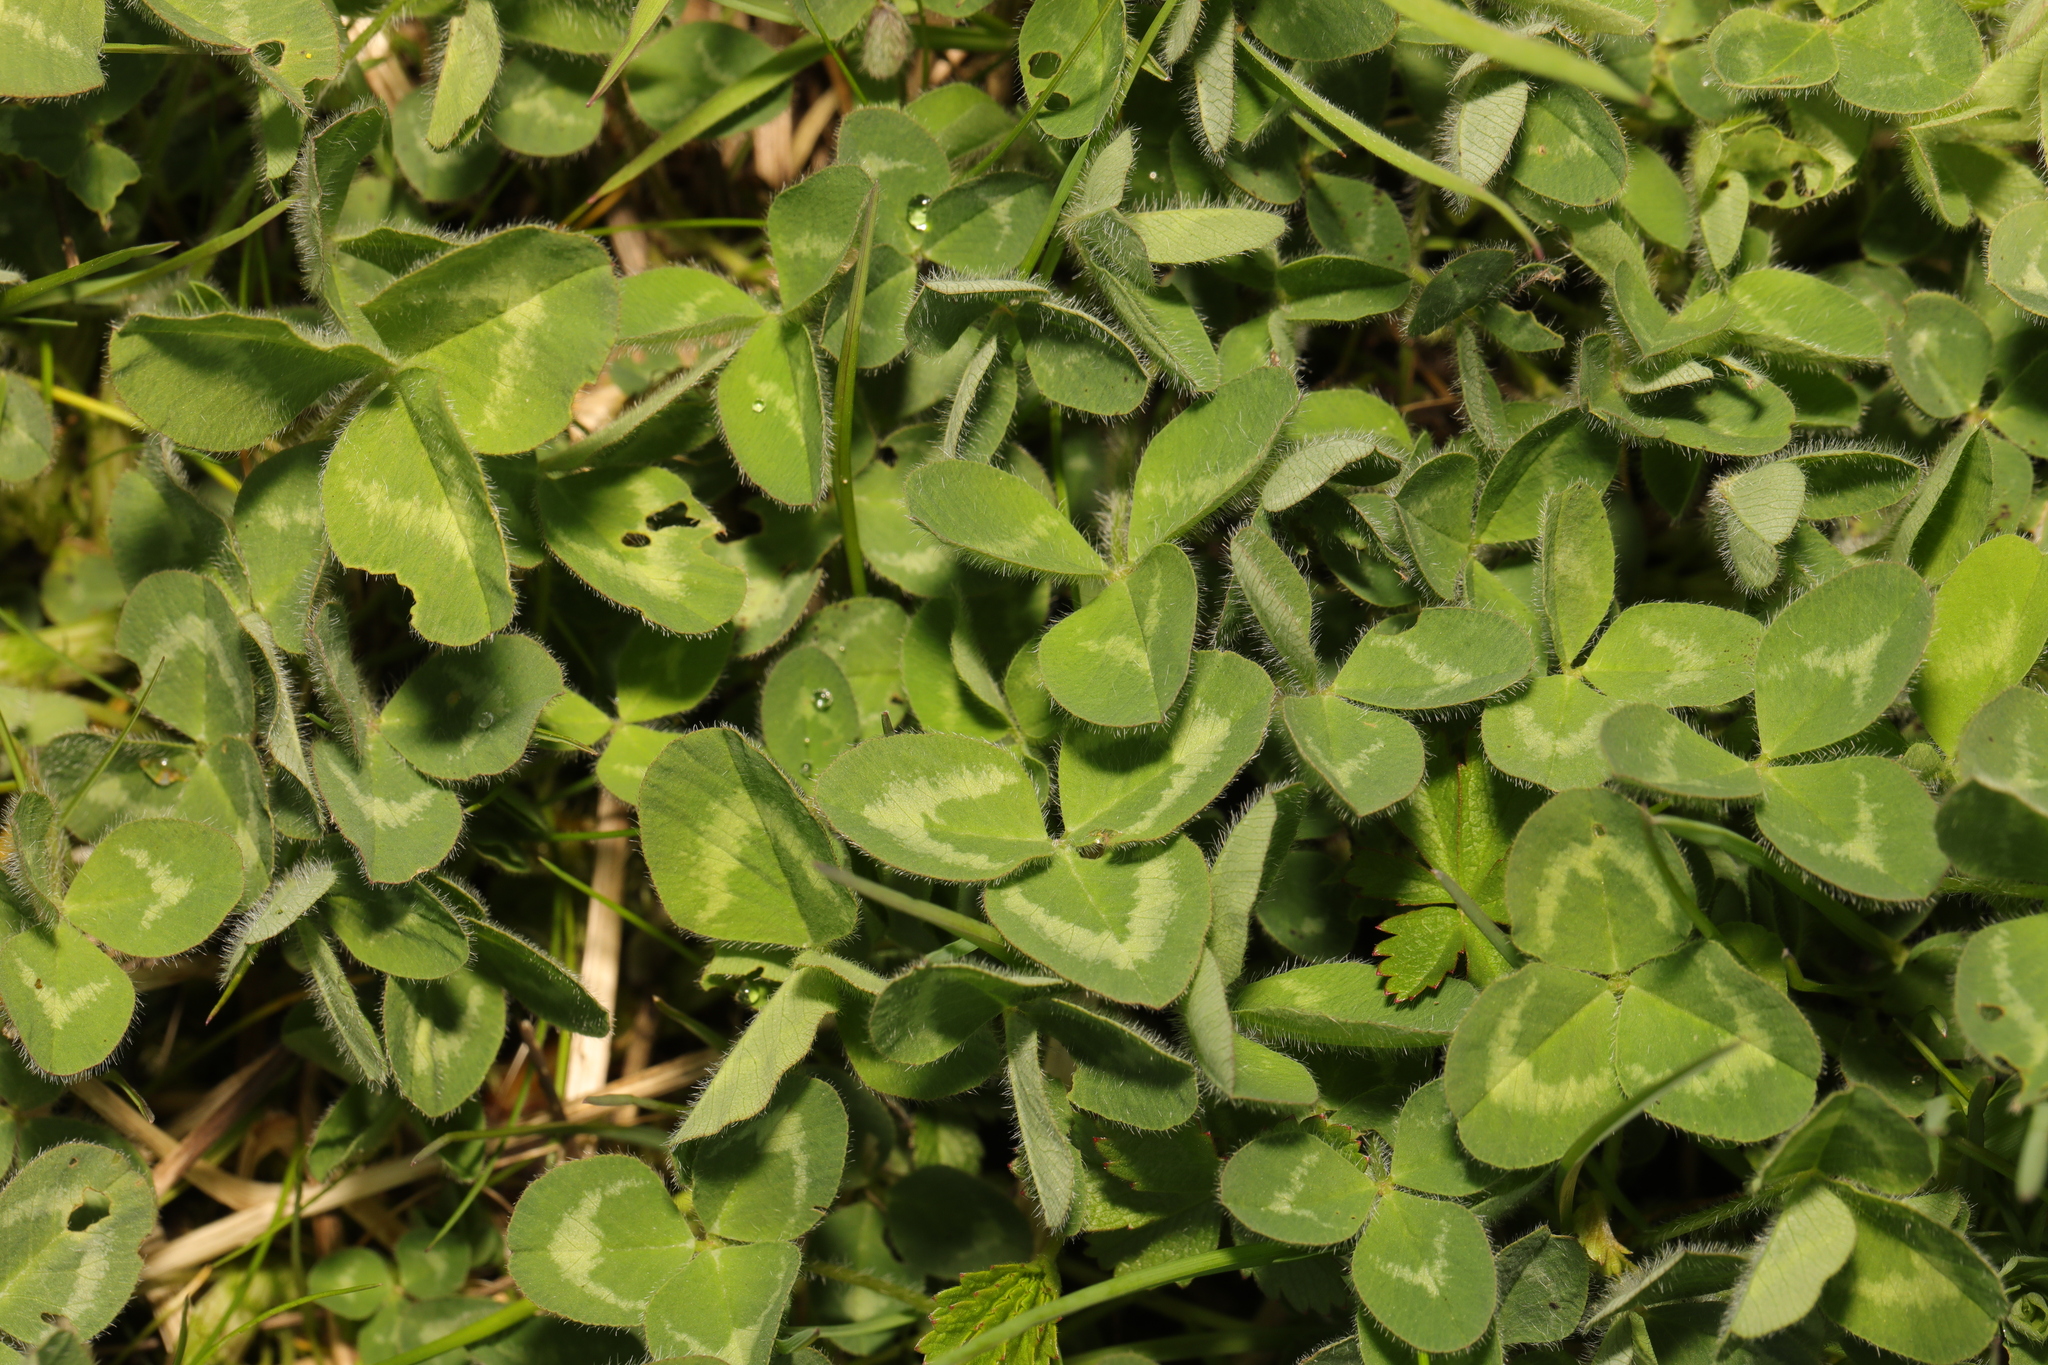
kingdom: Plantae
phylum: Tracheophyta
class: Magnoliopsida
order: Fabales
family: Fabaceae
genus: Trifolium
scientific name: Trifolium pratense
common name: Red clover
